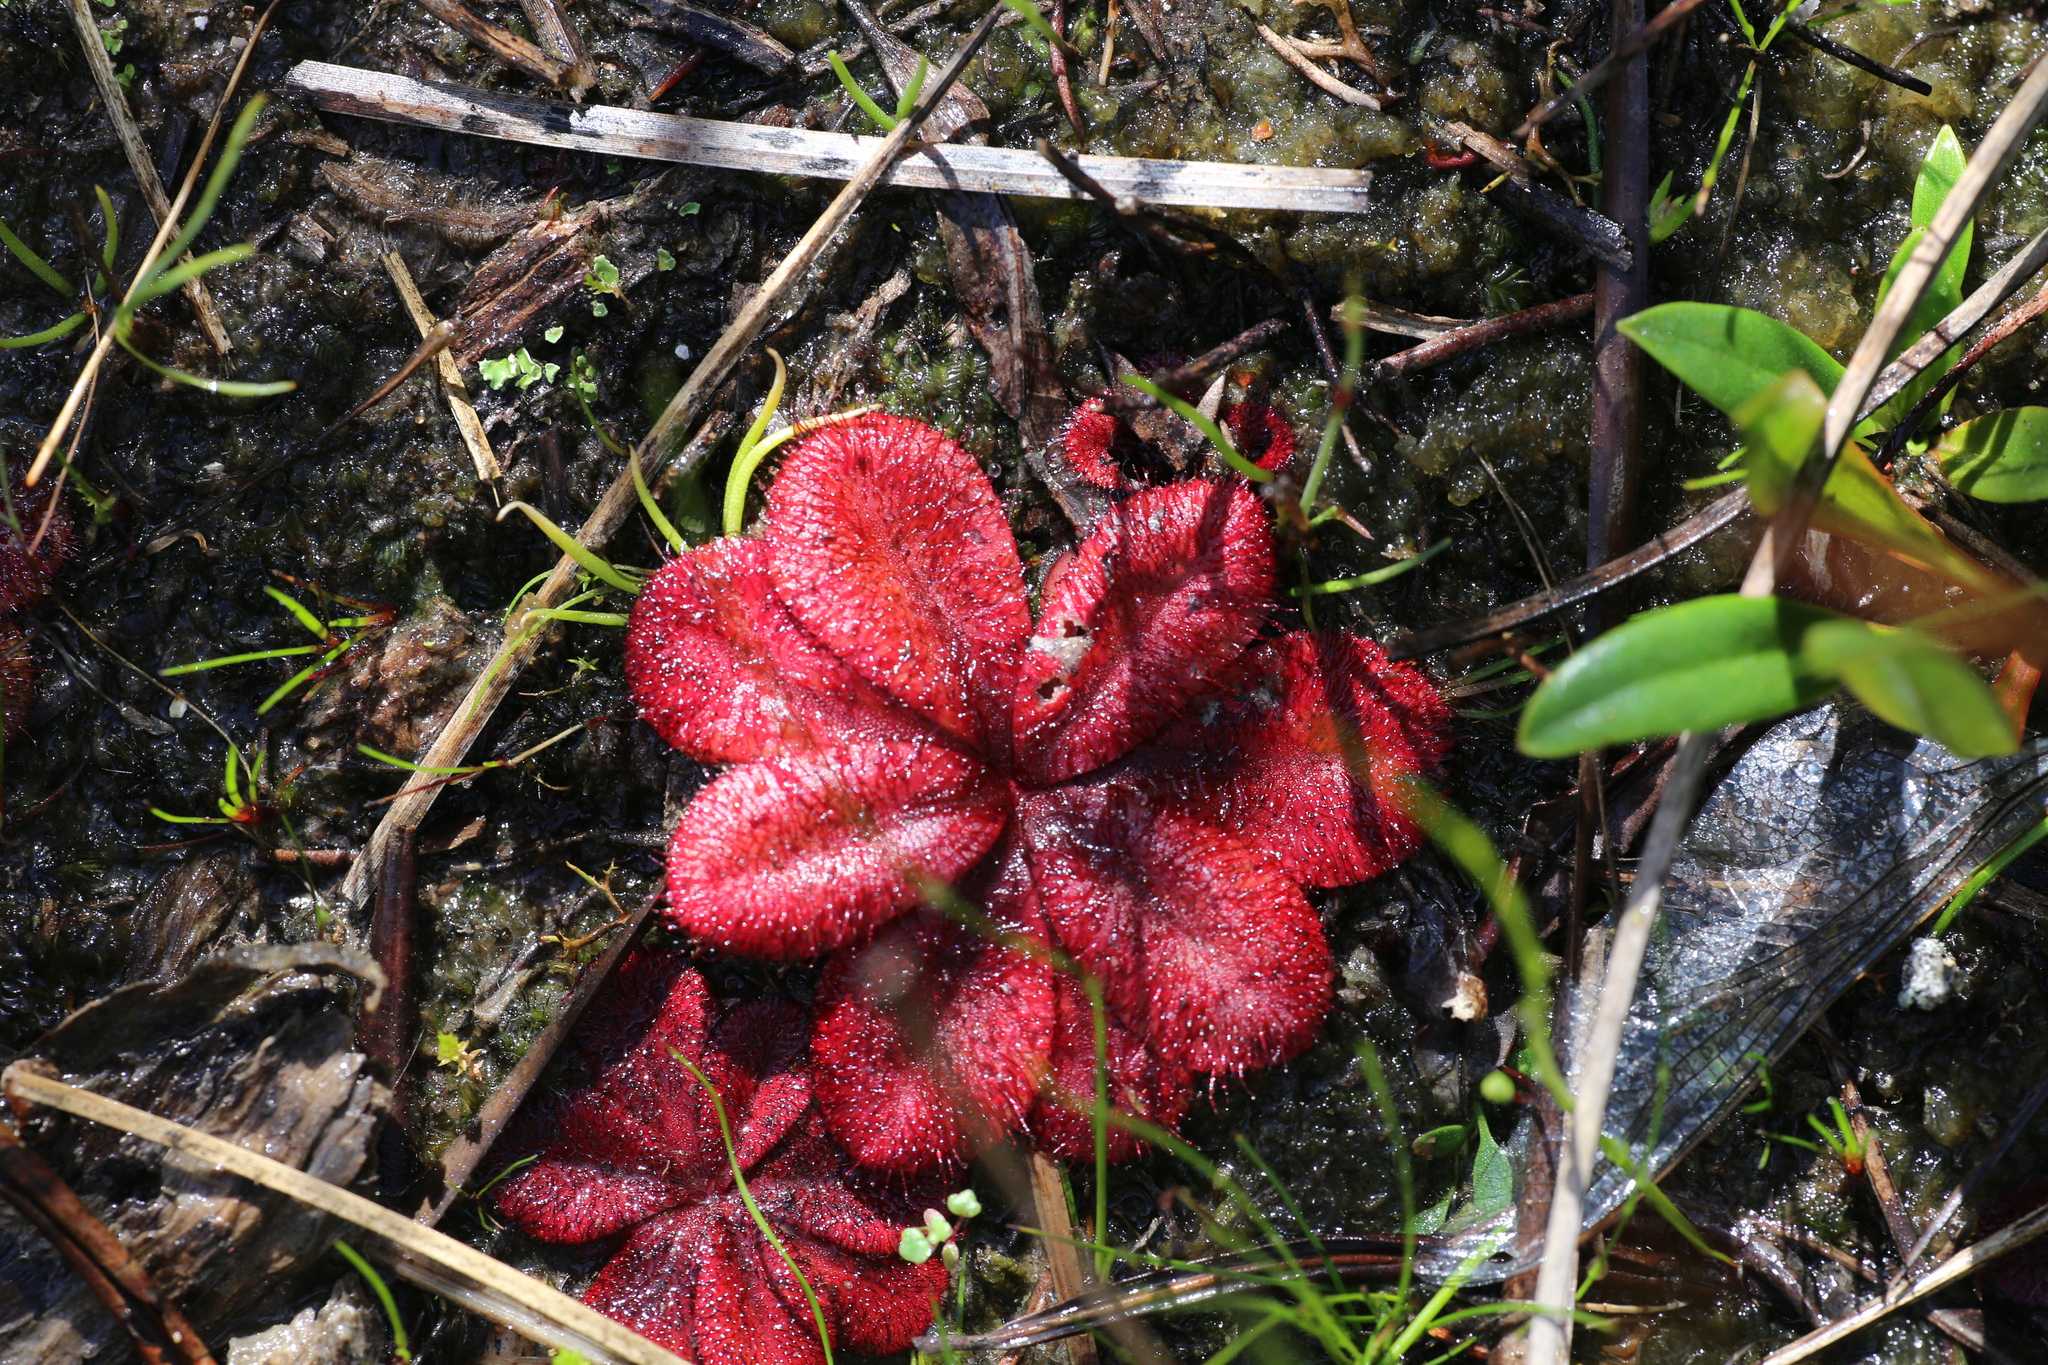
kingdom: Plantae
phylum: Tracheophyta
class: Magnoliopsida
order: Caryophyllales
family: Droseraceae
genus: Drosera
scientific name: Drosera rosulata
